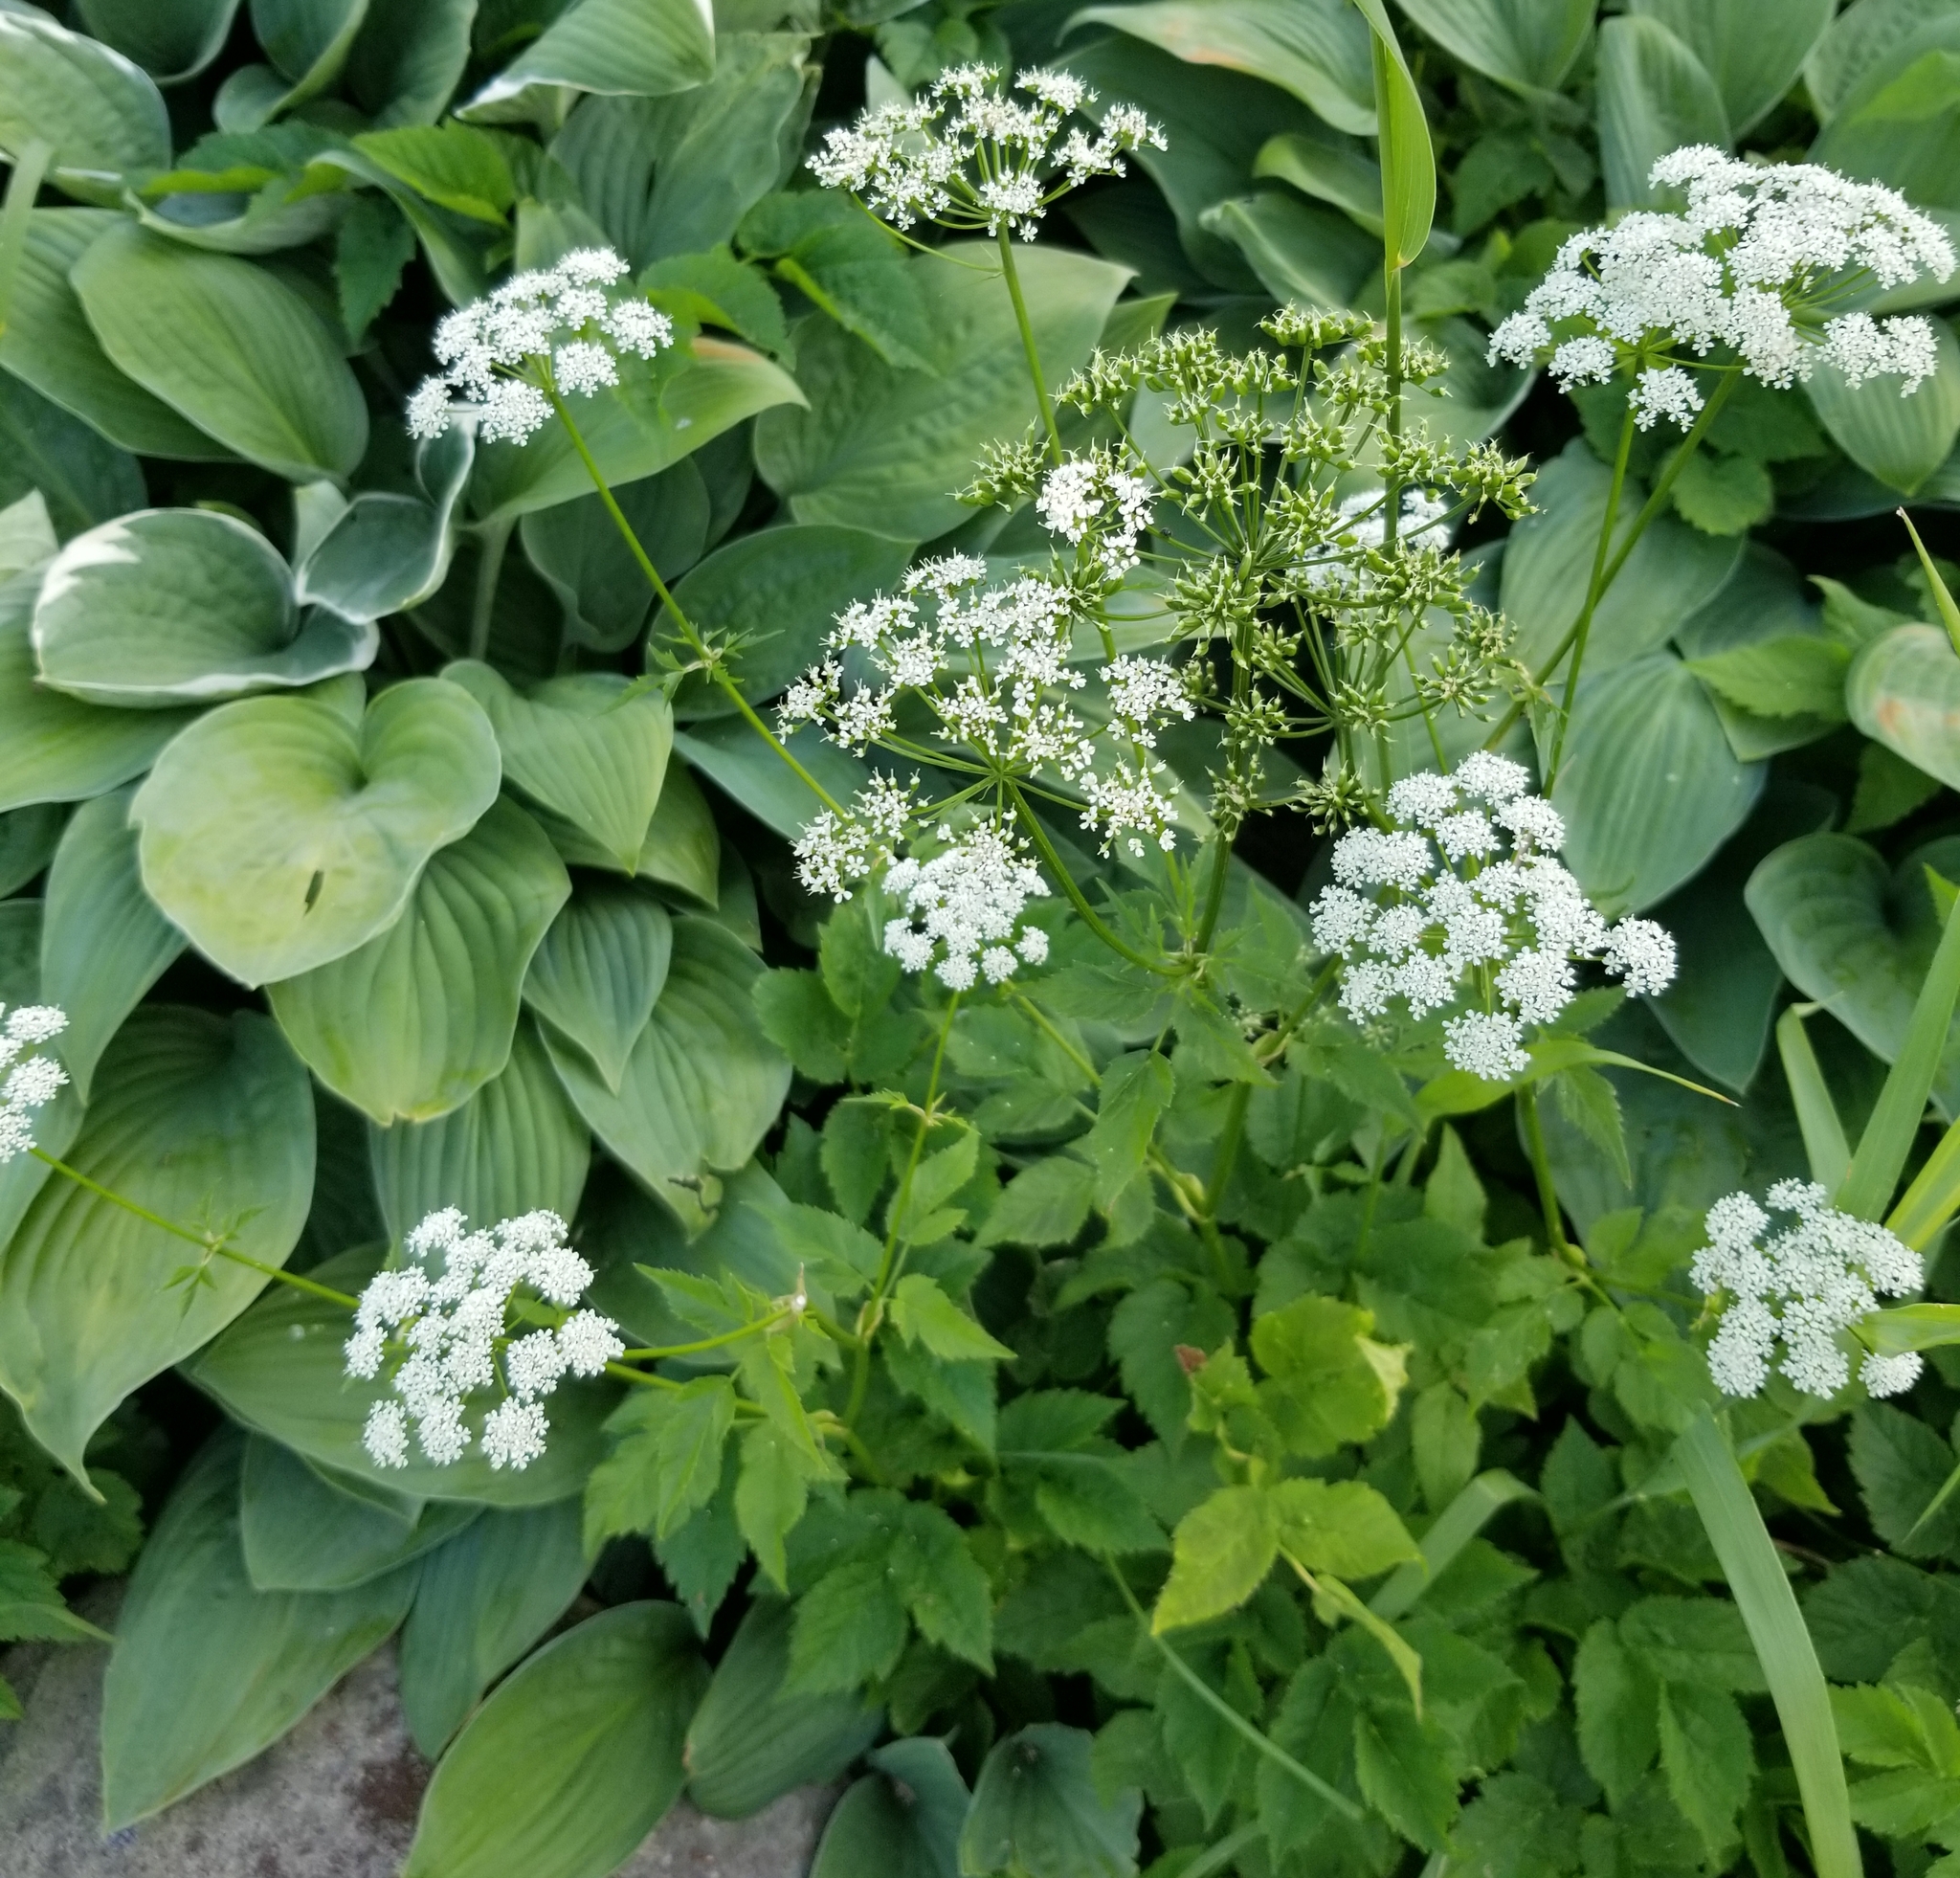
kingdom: Plantae
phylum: Tracheophyta
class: Magnoliopsida
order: Apiales
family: Apiaceae
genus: Aegopodium
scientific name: Aegopodium podagraria
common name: Ground-elder
